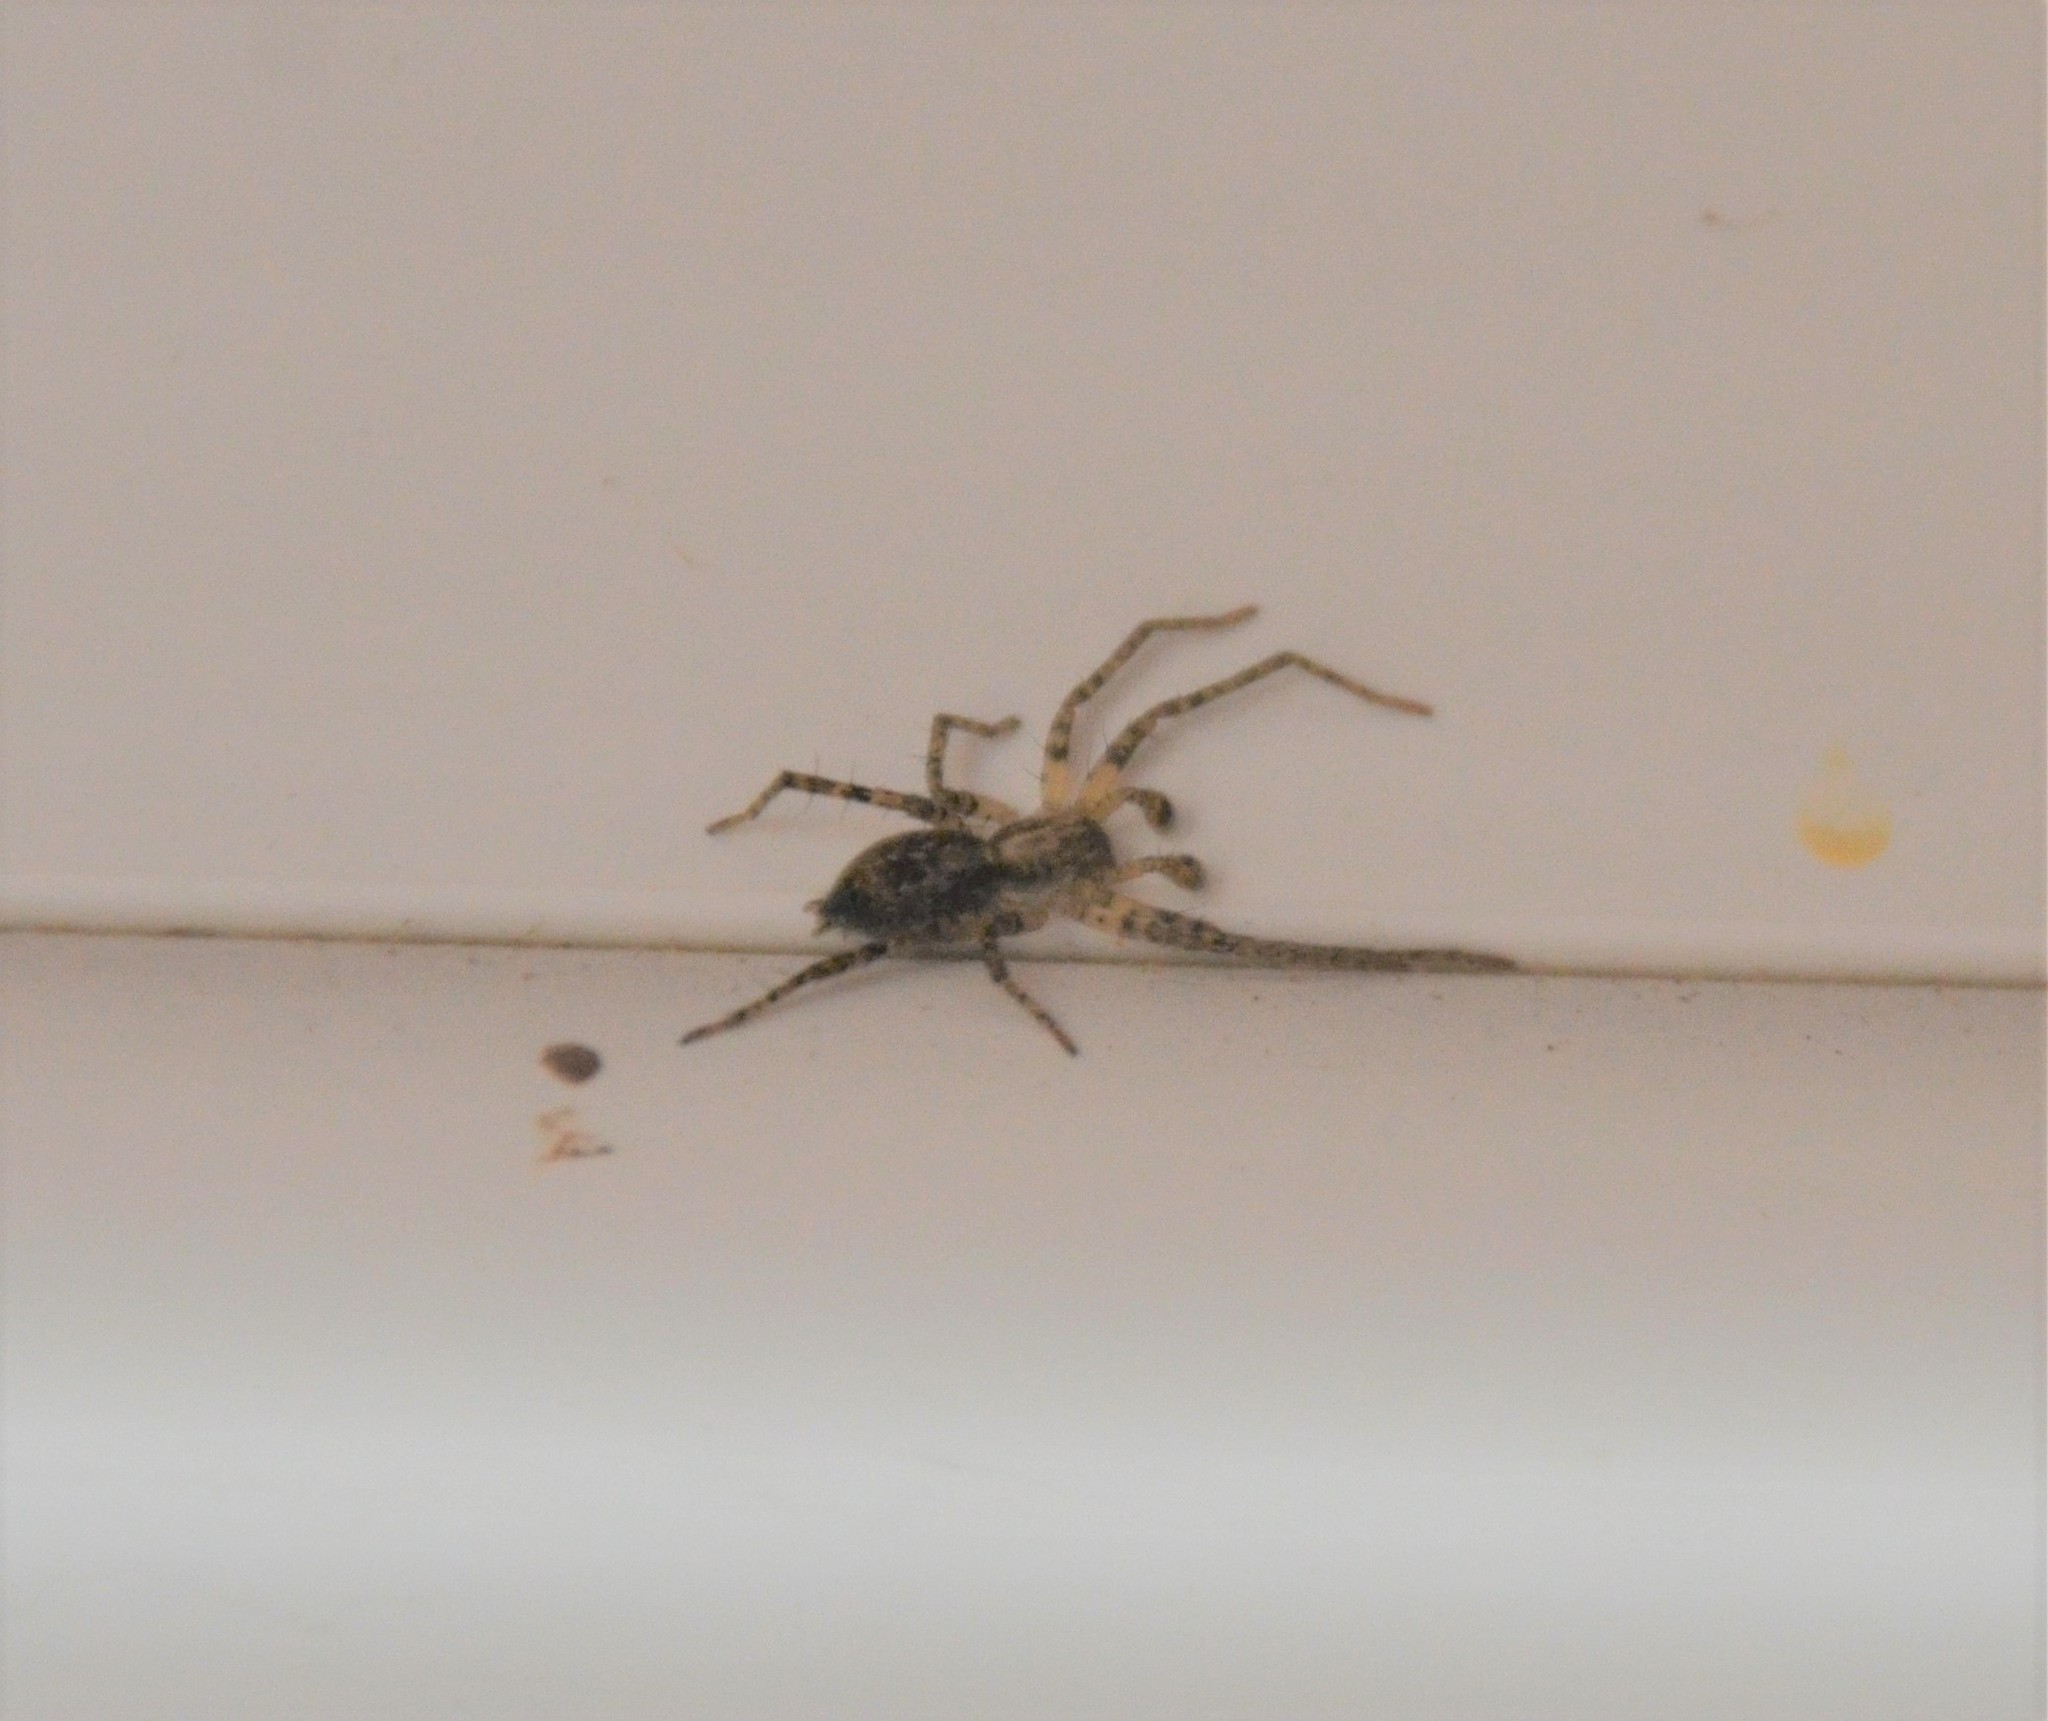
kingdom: Animalia
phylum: Arthropoda
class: Arachnida
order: Araneae
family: Anyphaenidae
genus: Anyphaena
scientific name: Anyphaena accentuata
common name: Buzzing spider
